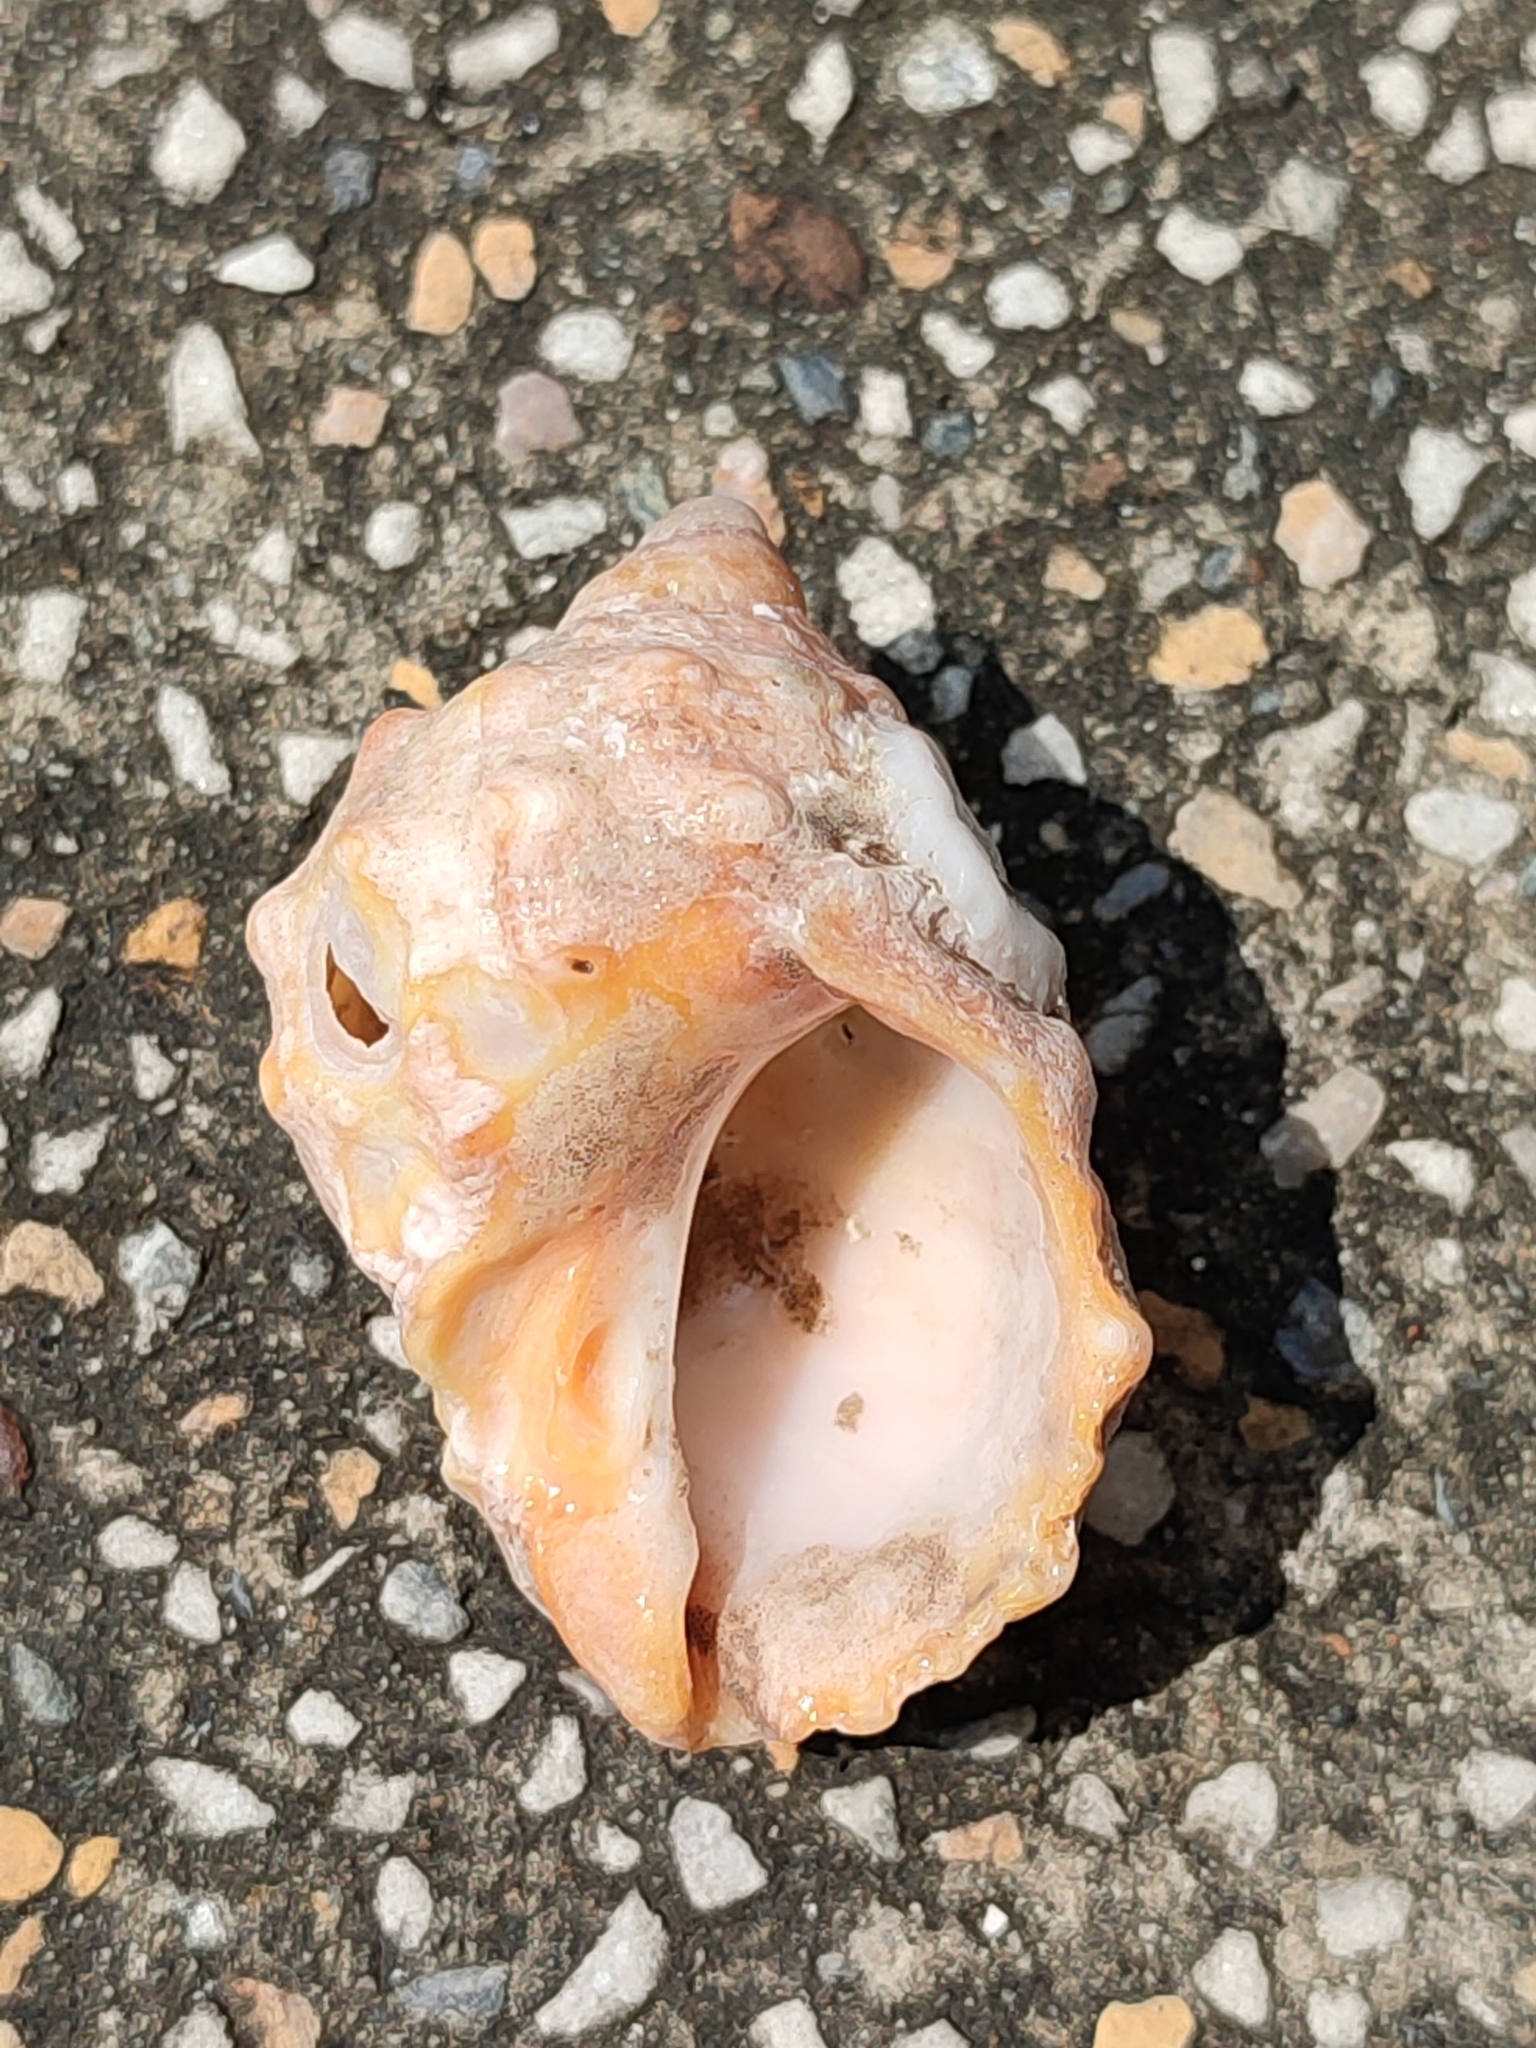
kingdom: Animalia
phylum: Mollusca
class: Gastropoda
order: Neogastropoda
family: Muricidae
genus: Mancinella
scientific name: Mancinella echinulata
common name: Lamarck's spiny rock shell
